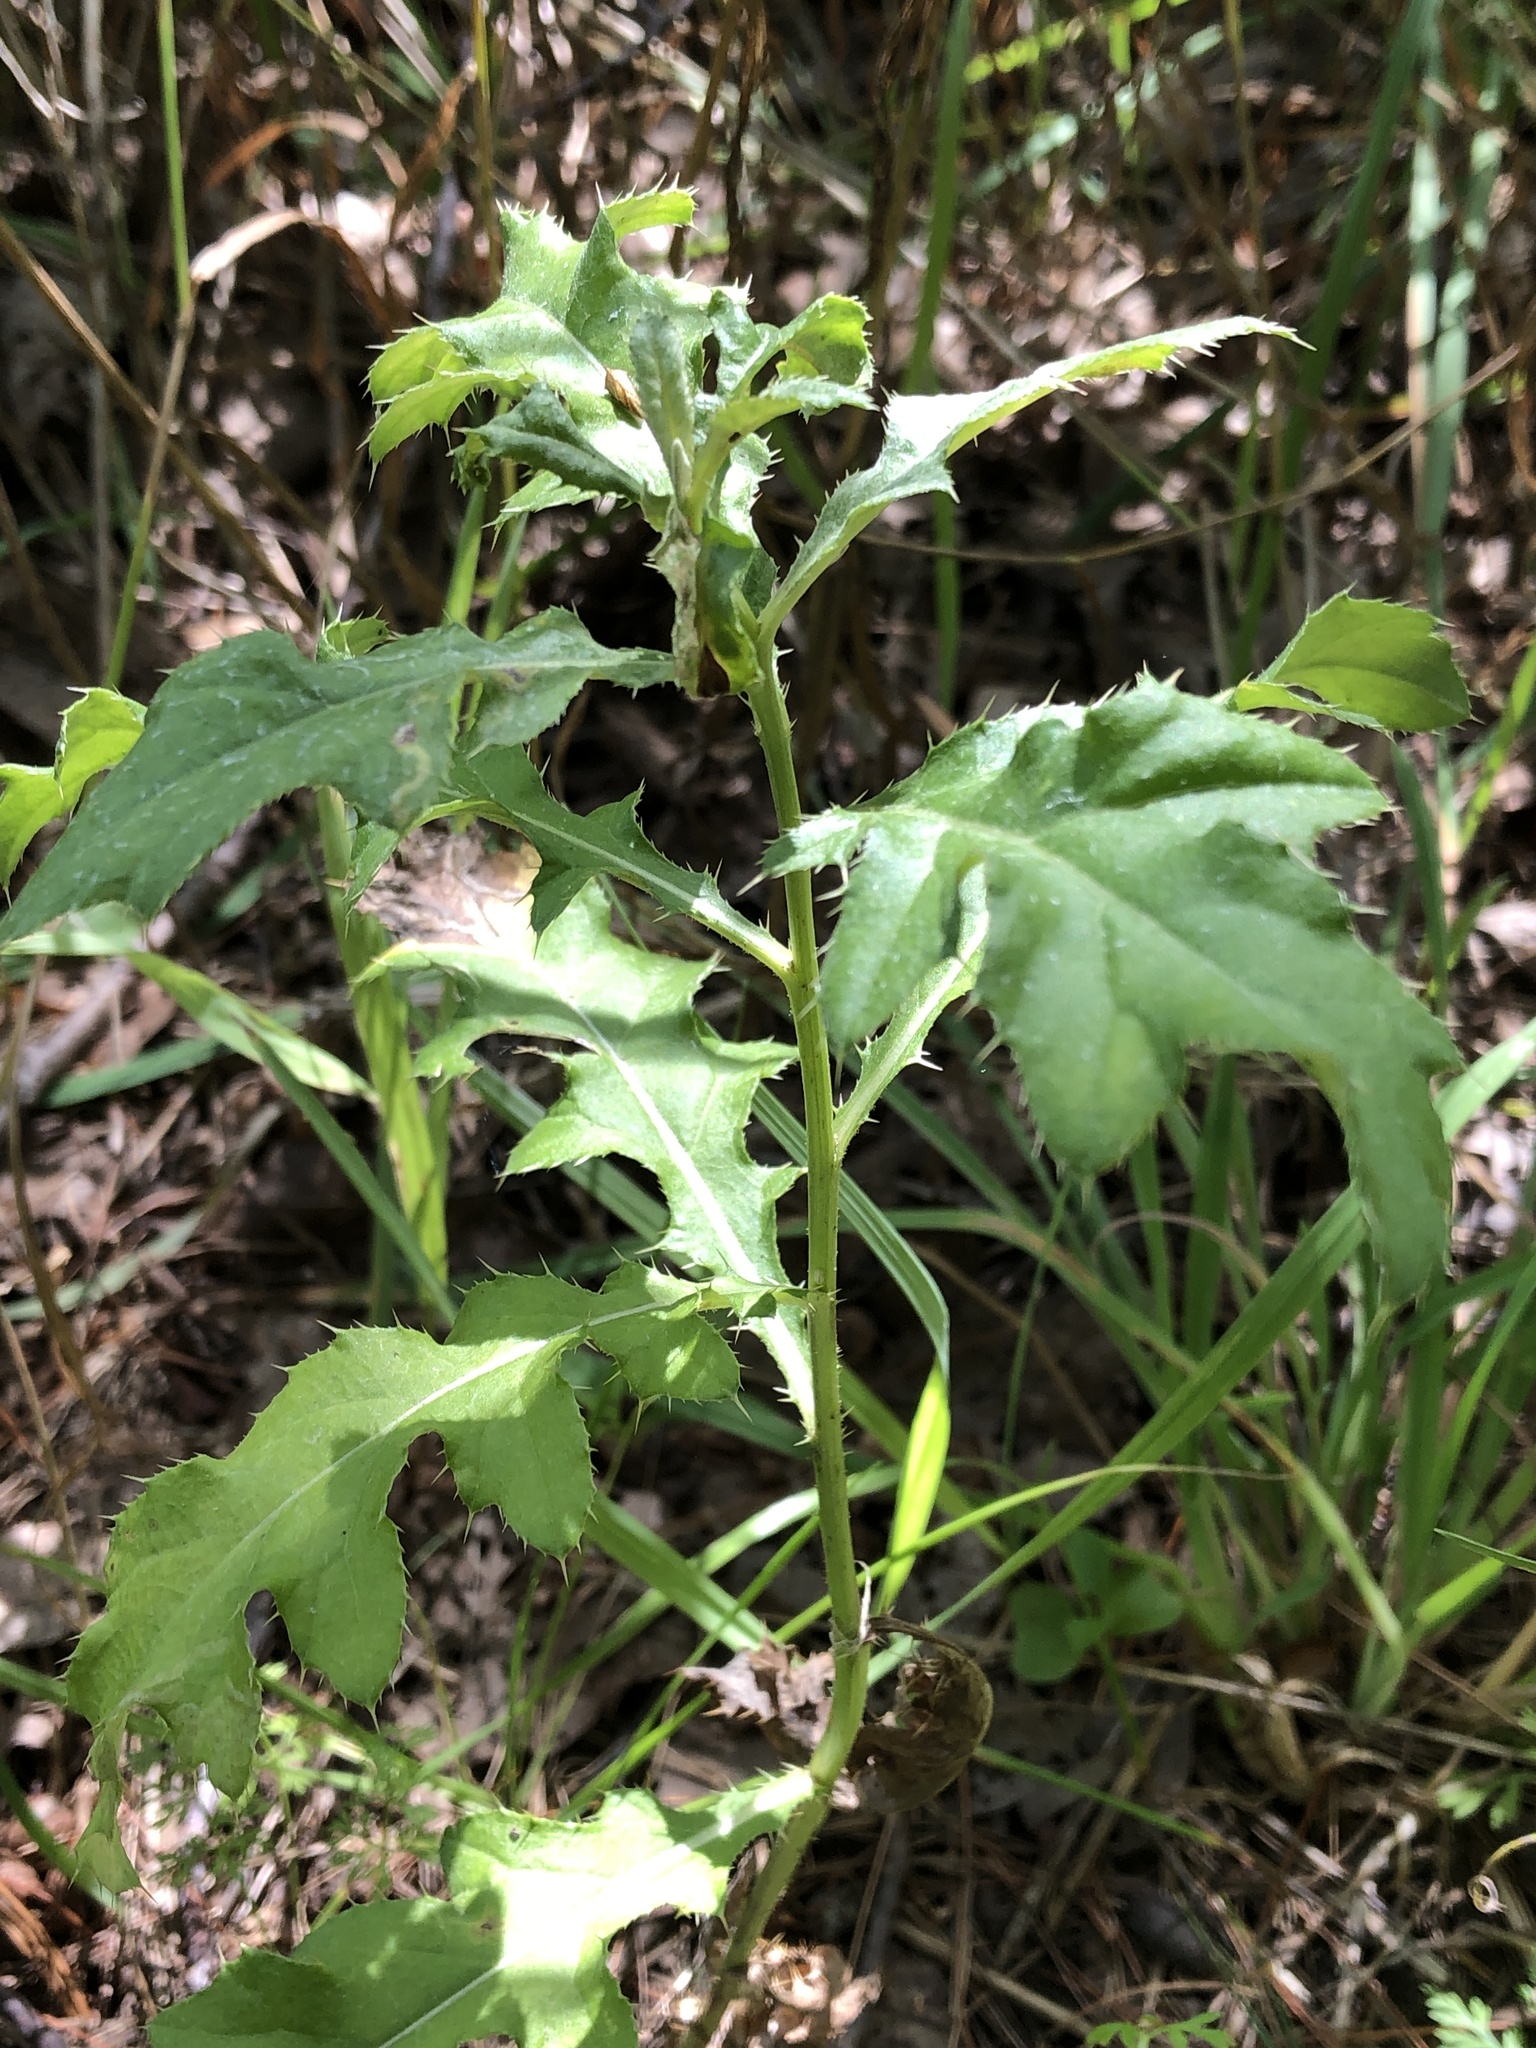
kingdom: Plantae
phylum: Tracheophyta
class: Magnoliopsida
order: Asterales
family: Asteraceae
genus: Cirsium
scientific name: Cirsium arvense
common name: Creeping thistle
